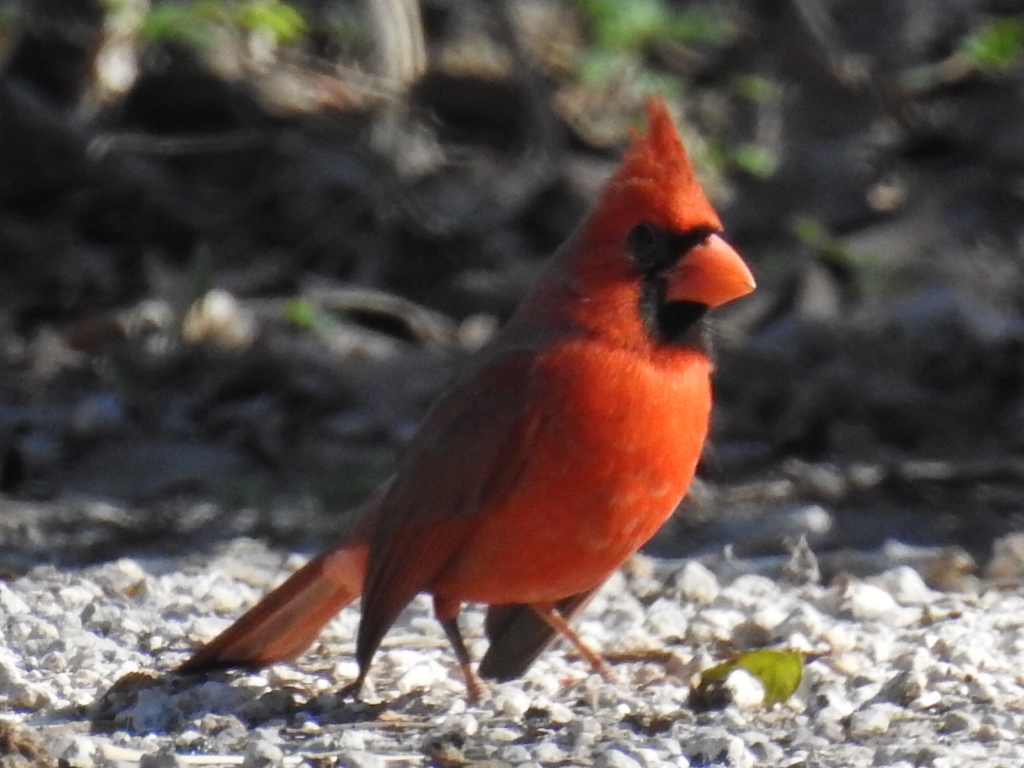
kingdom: Animalia
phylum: Chordata
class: Aves
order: Passeriformes
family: Cardinalidae
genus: Cardinalis
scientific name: Cardinalis cardinalis
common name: Northern cardinal
